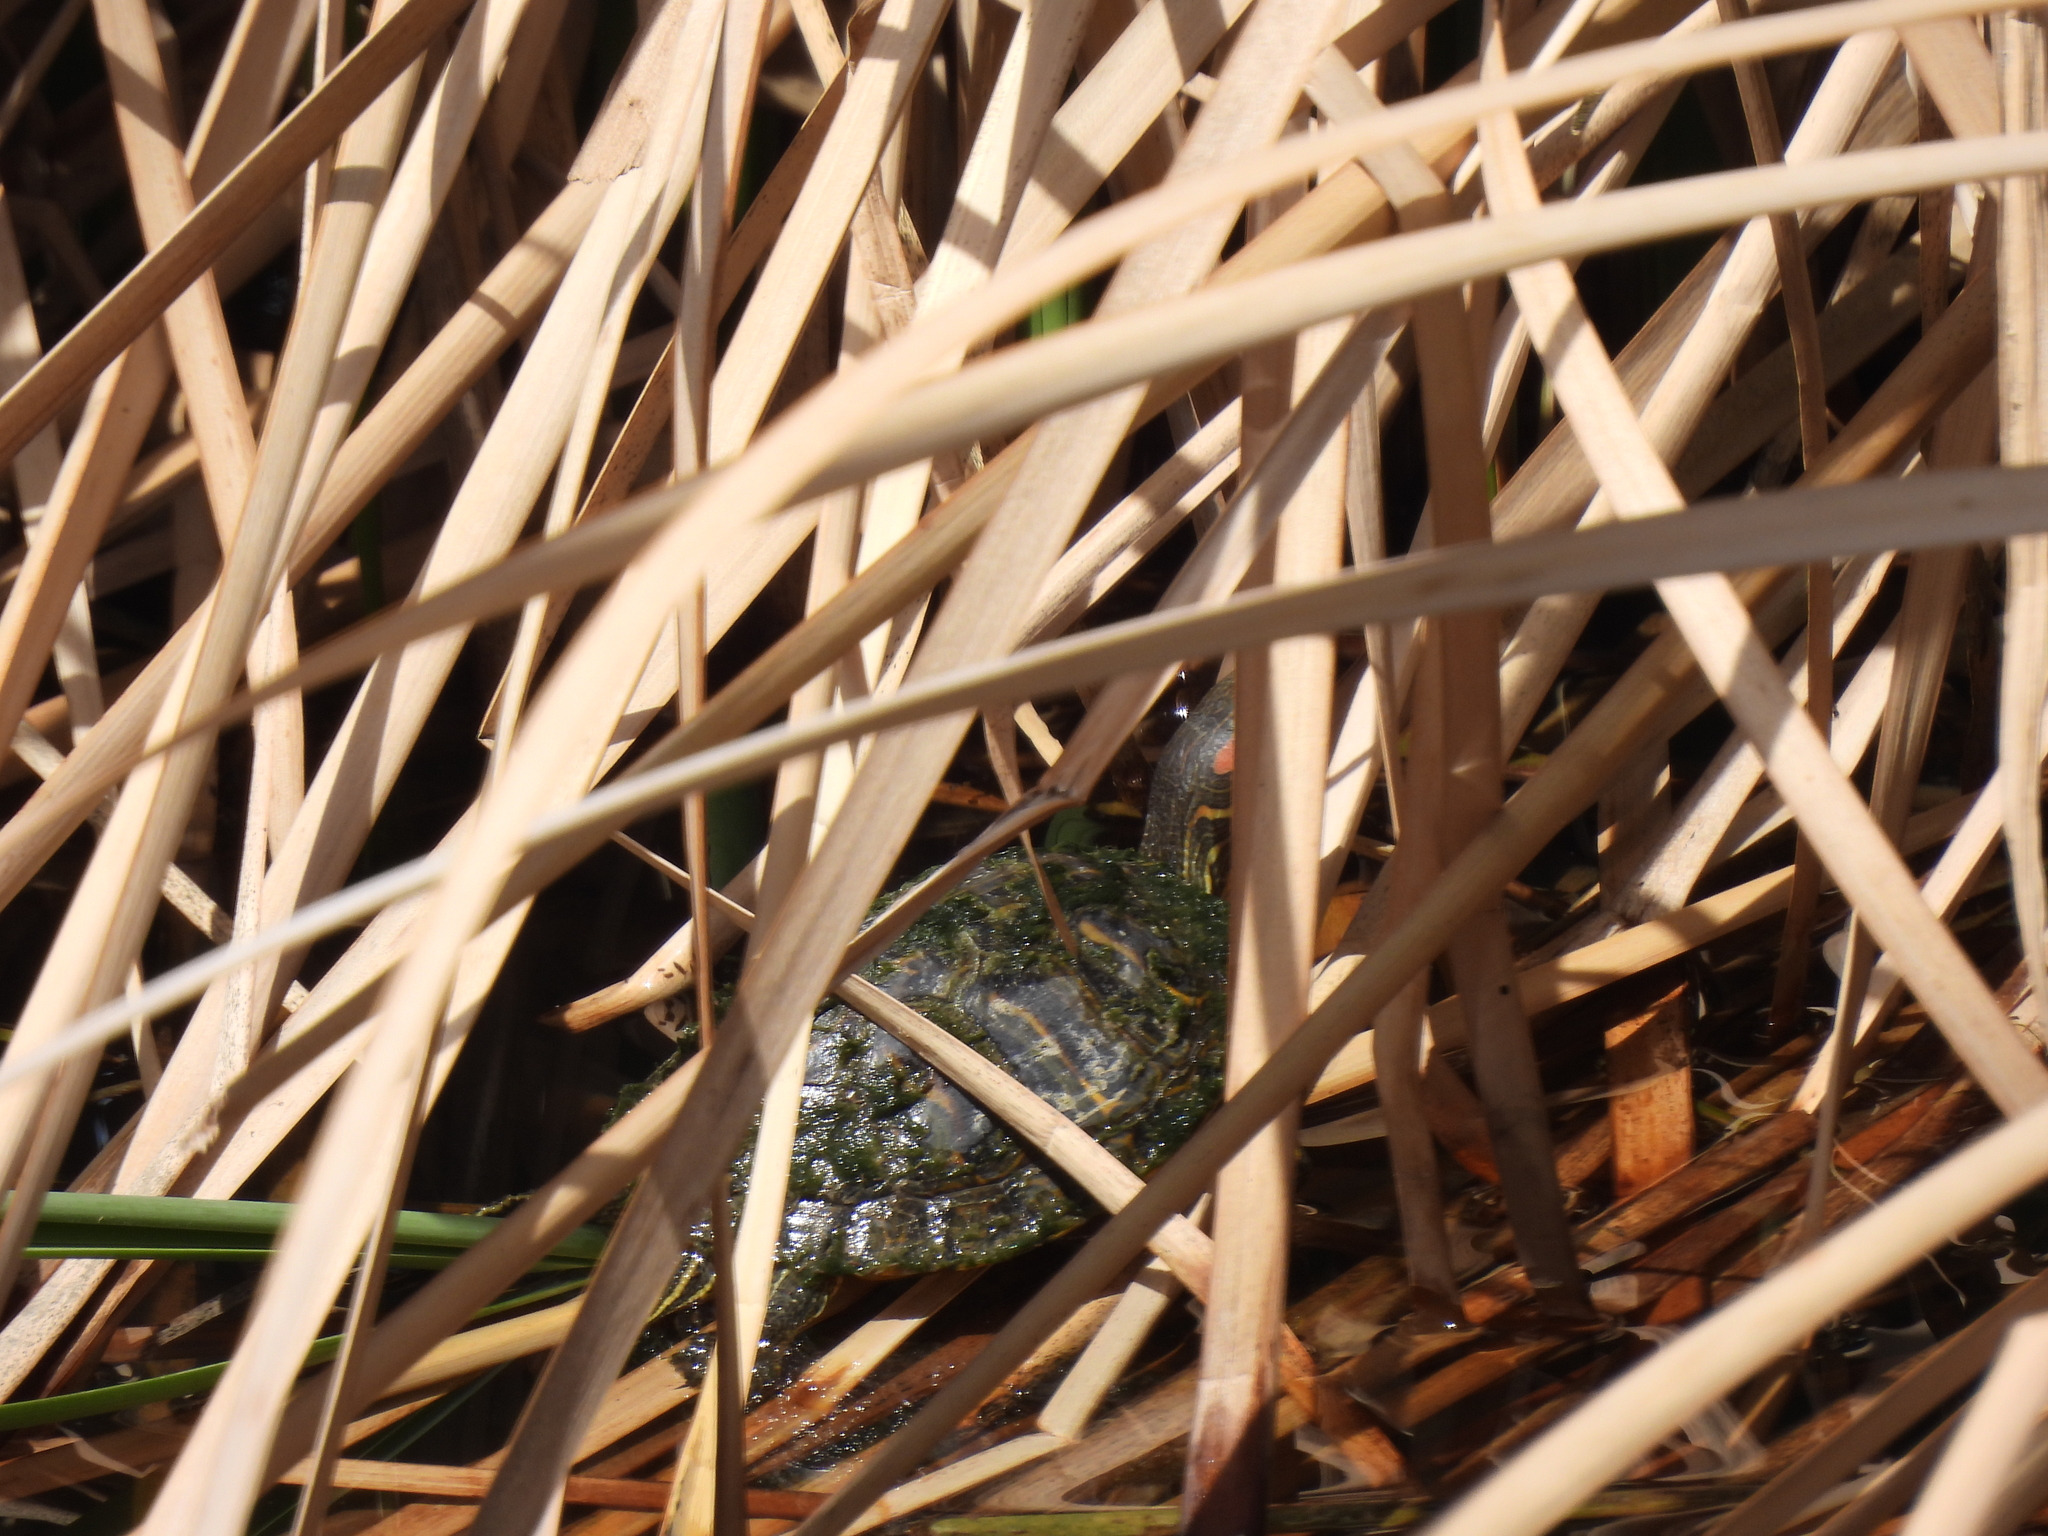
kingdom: Animalia
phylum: Chordata
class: Testudines
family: Emydidae
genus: Trachemys
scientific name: Trachemys scripta
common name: Slider
